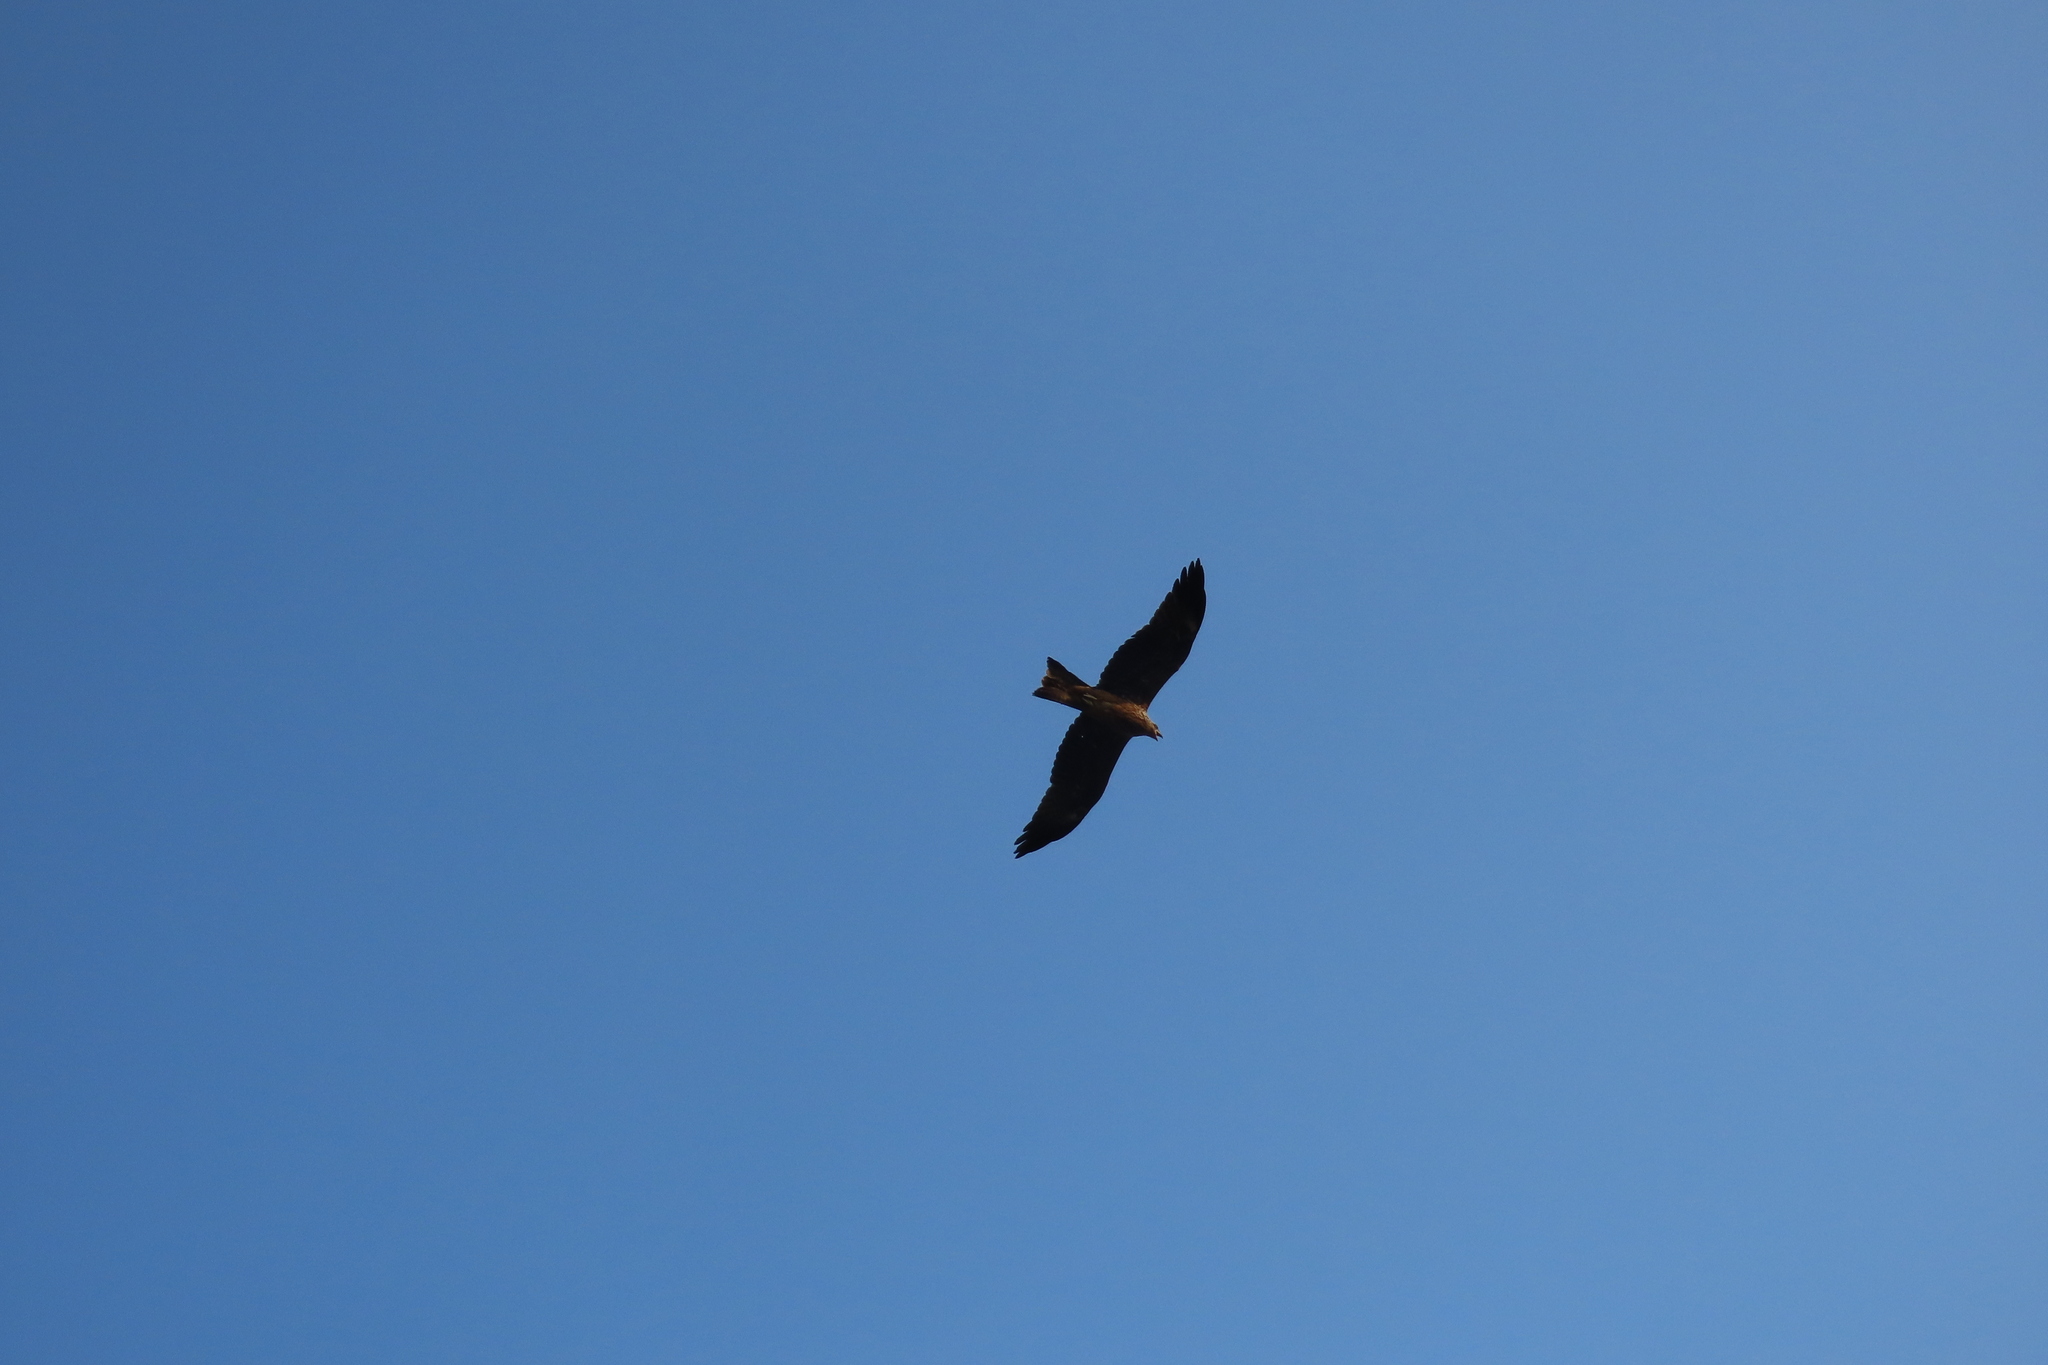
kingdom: Animalia
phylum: Chordata
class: Aves
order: Accipitriformes
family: Accipitridae
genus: Milvus
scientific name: Milvus migrans
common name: Black kite
